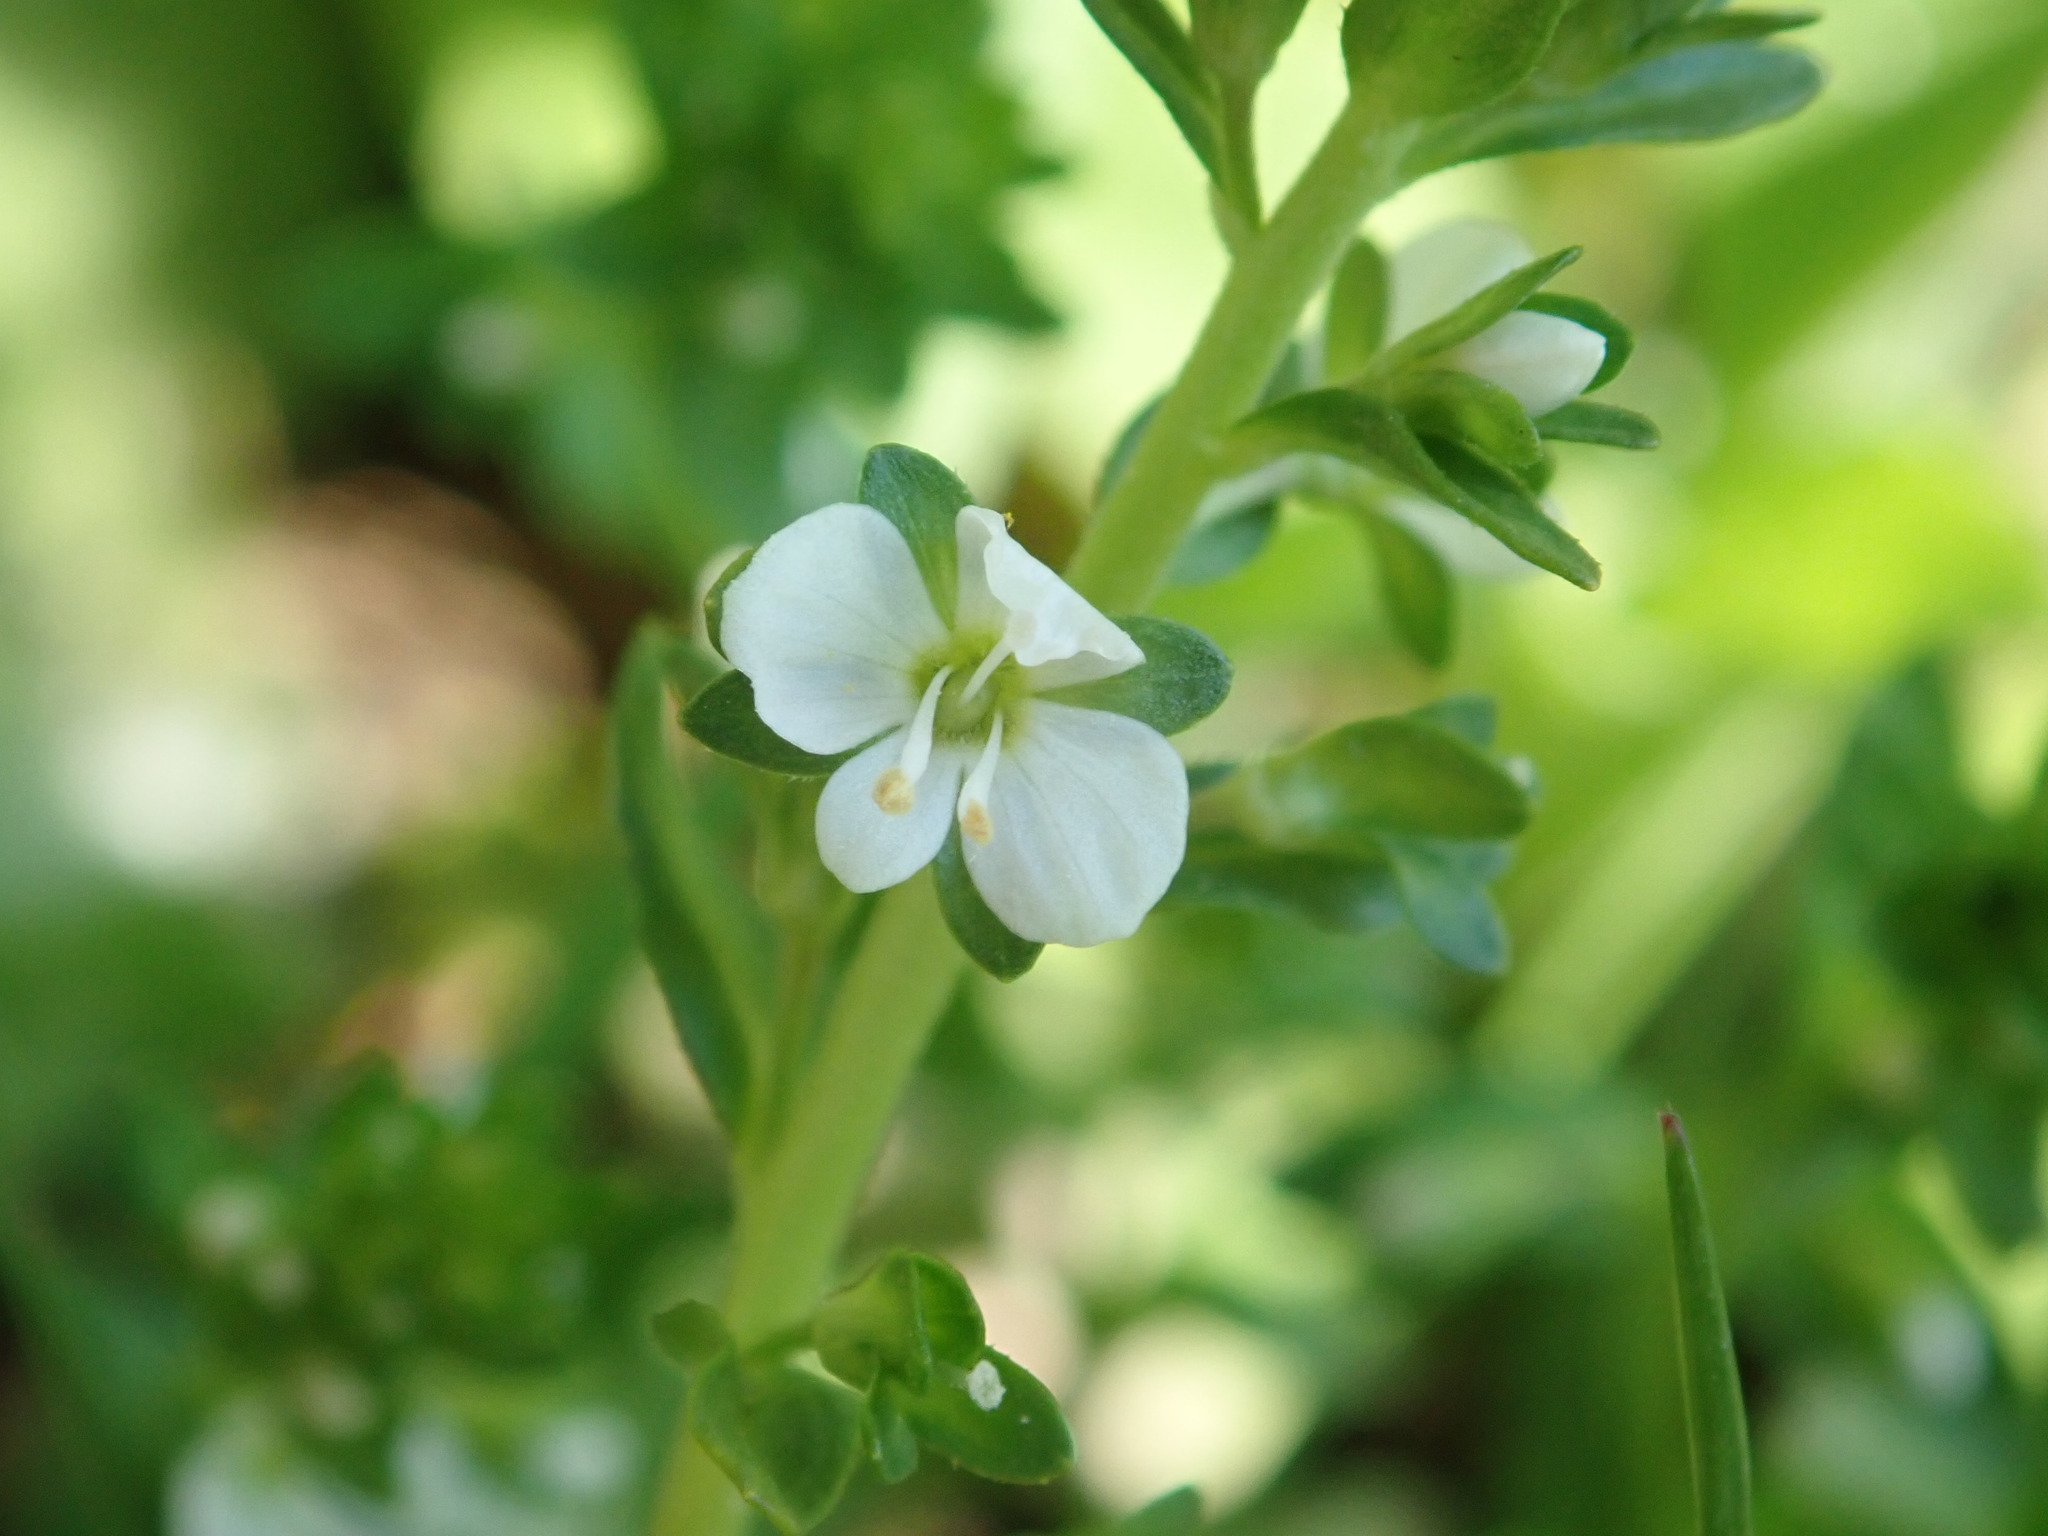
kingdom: Plantae
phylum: Tracheophyta
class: Magnoliopsida
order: Lamiales
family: Plantaginaceae
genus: Veronica
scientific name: Veronica serpyllifolia
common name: Thyme-leaved speedwell
